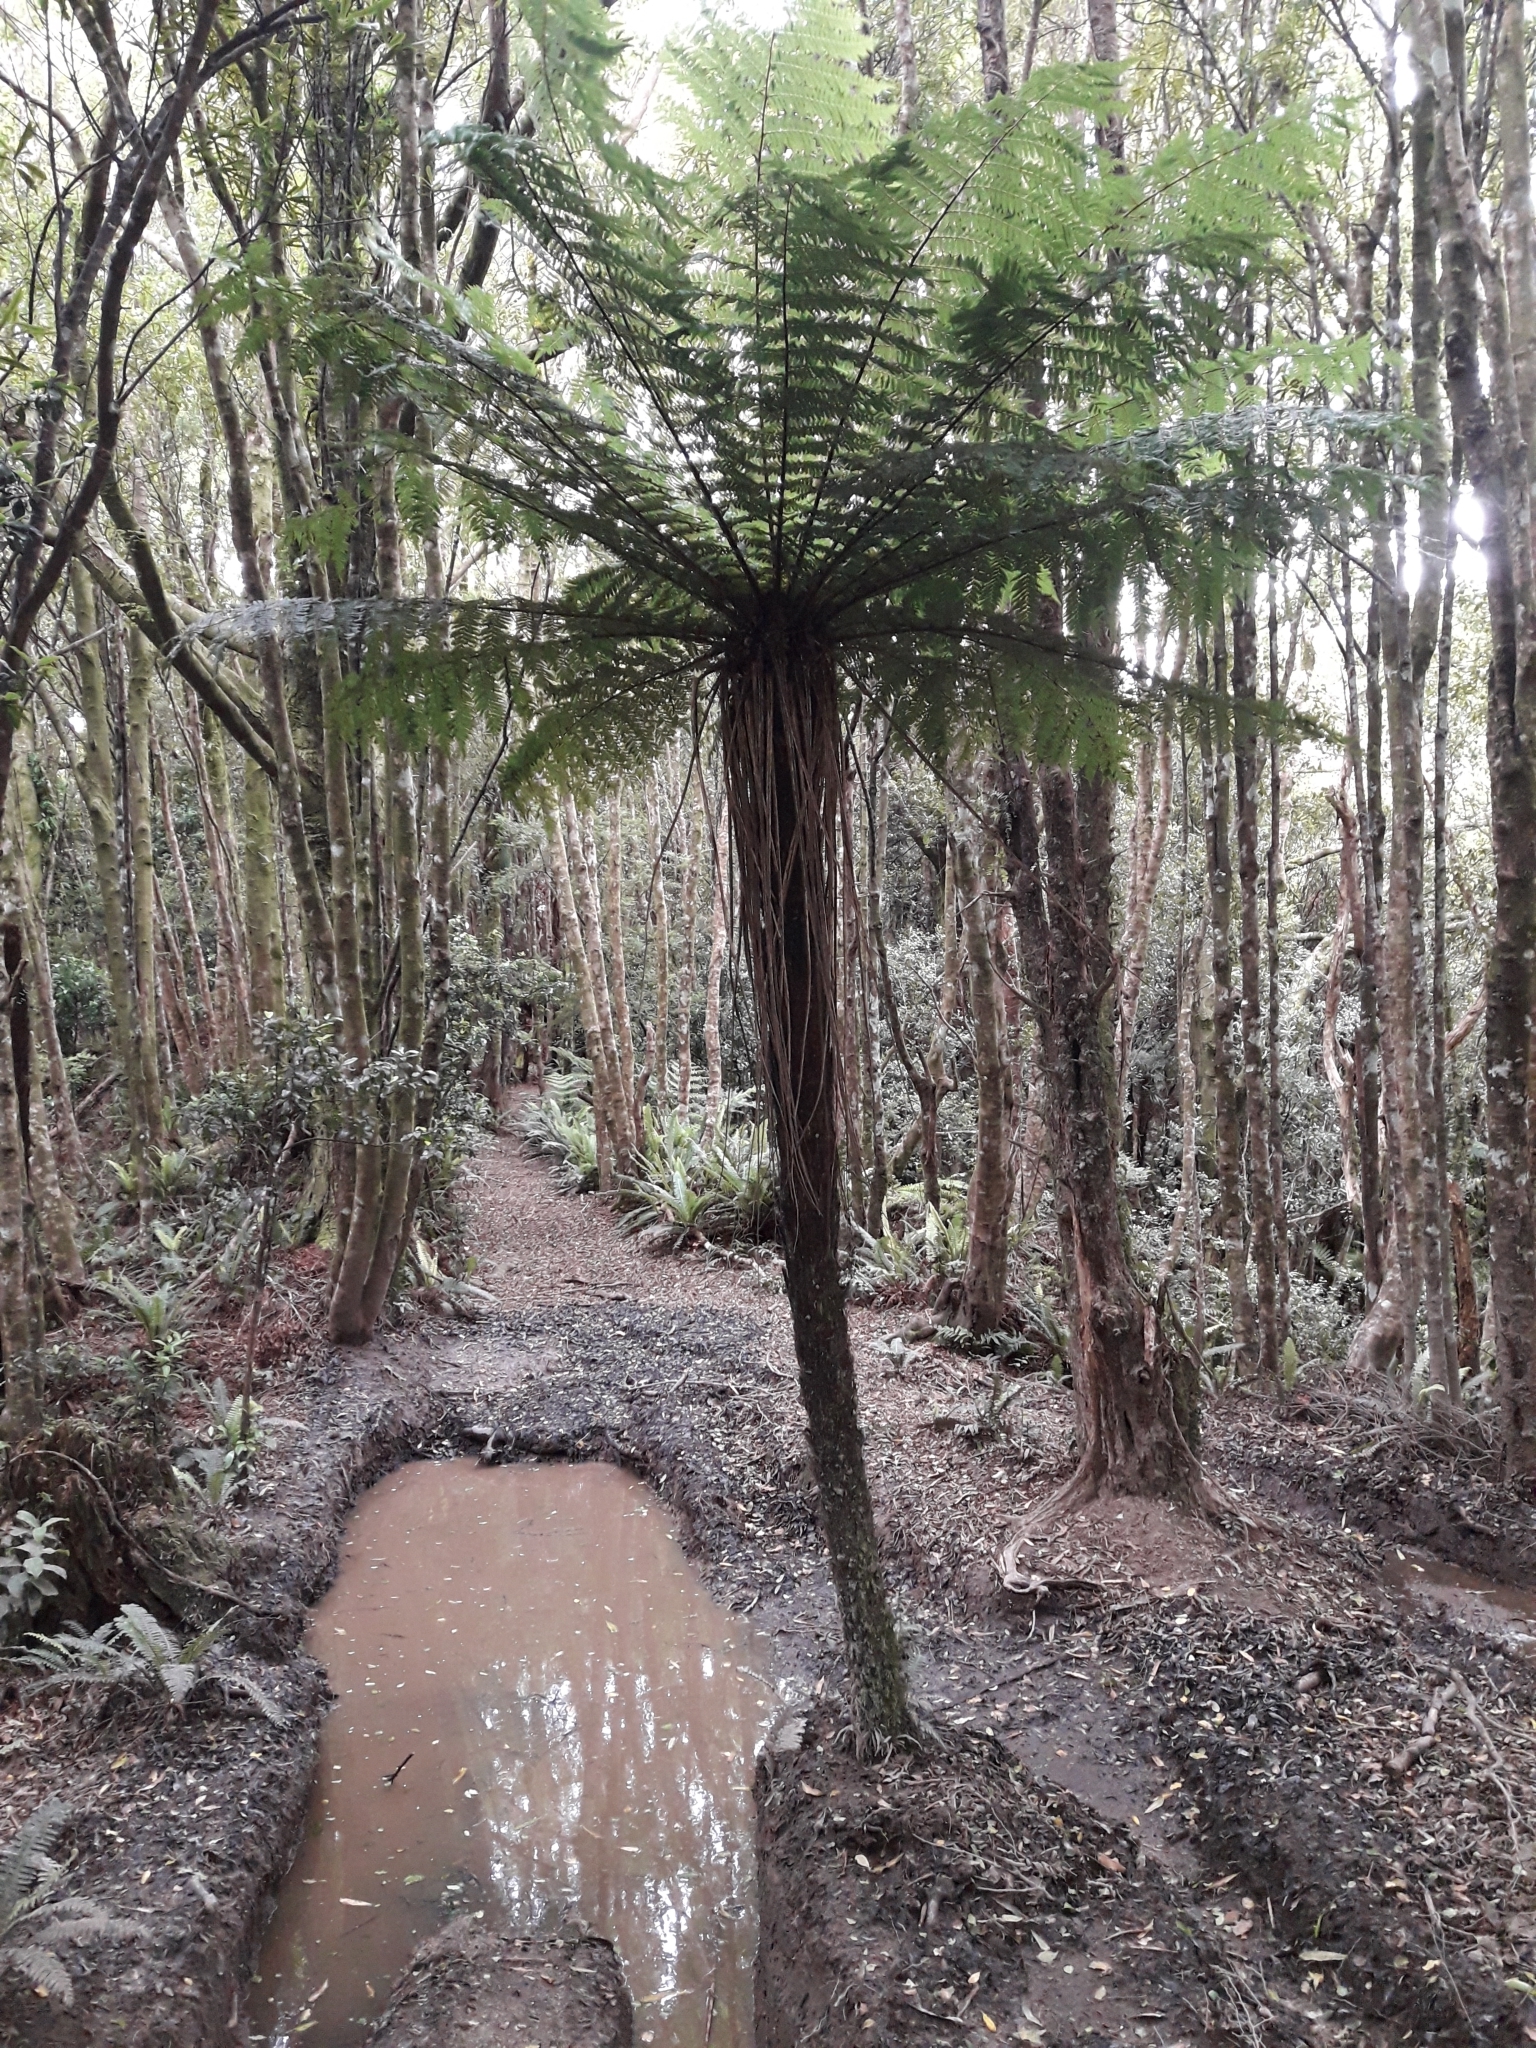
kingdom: Plantae
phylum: Tracheophyta
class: Polypodiopsida
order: Cyatheales
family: Cyatheaceae
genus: Alsophila
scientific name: Alsophila smithii
